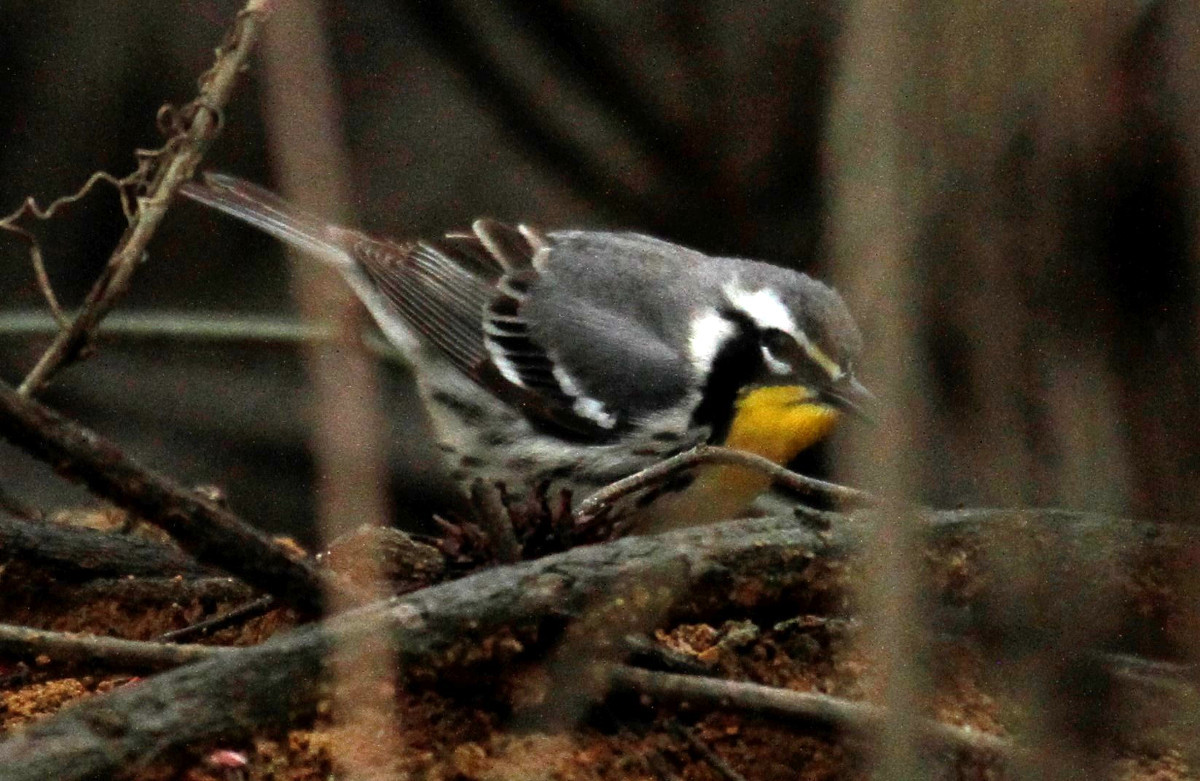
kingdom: Animalia
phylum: Chordata
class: Aves
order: Passeriformes
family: Parulidae
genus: Setophaga
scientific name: Setophaga dominica
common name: Yellow-throated warbler
